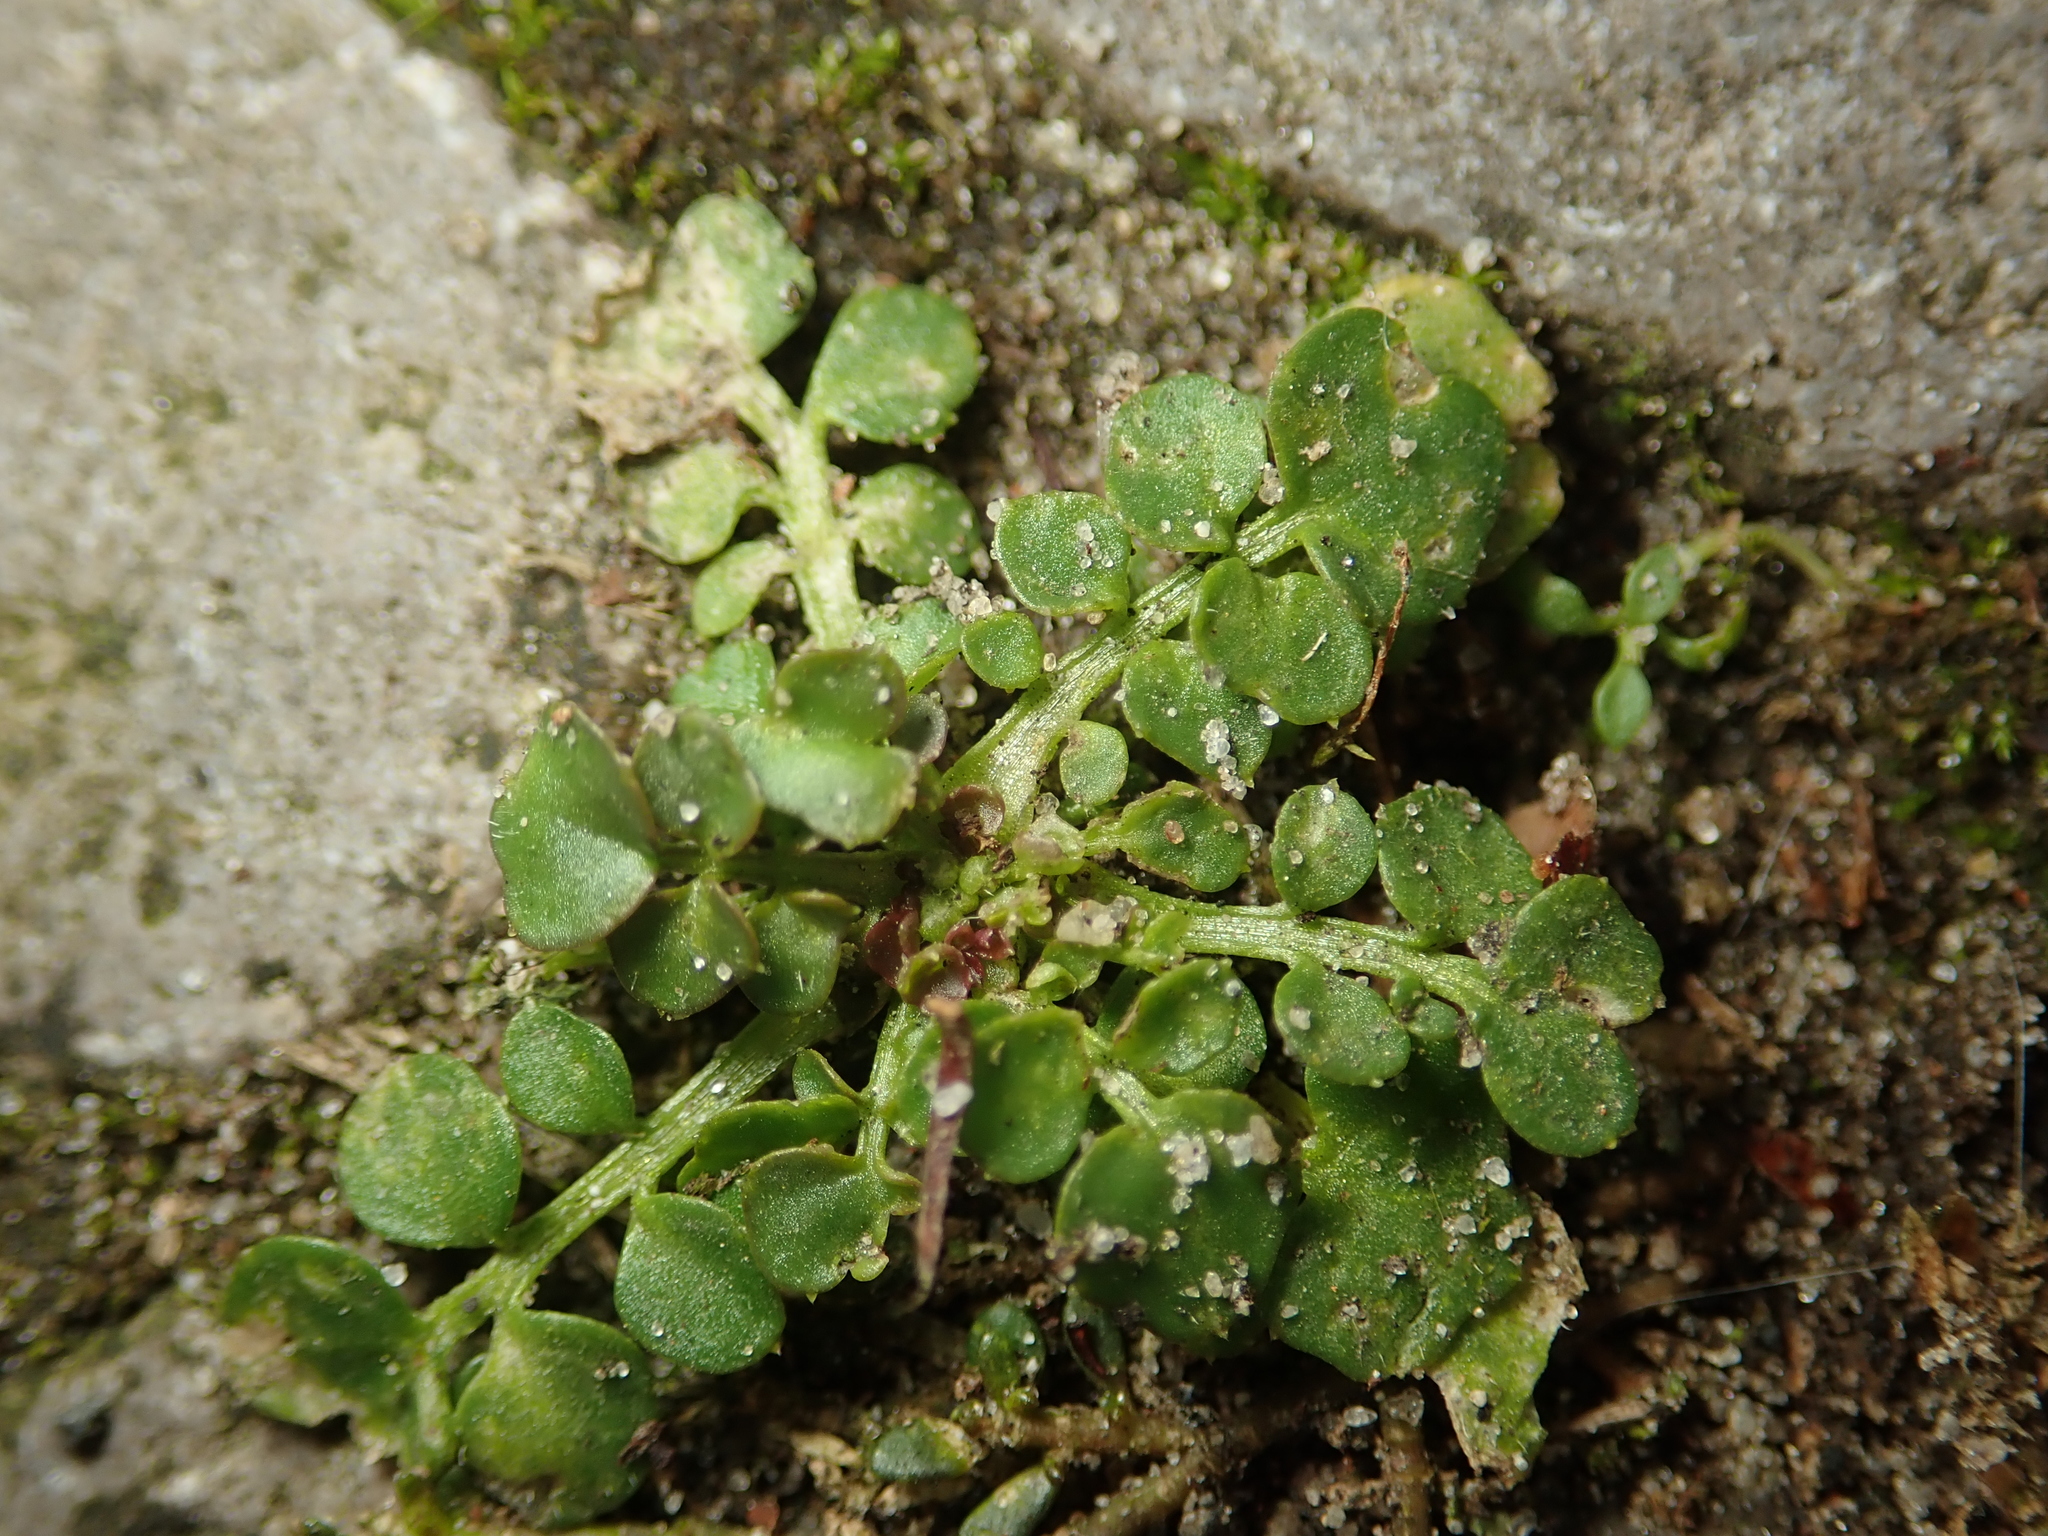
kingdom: Plantae
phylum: Tracheophyta
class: Magnoliopsida
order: Brassicales
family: Brassicaceae
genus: Cardamine
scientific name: Cardamine hirsuta
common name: Hairy bittercress
